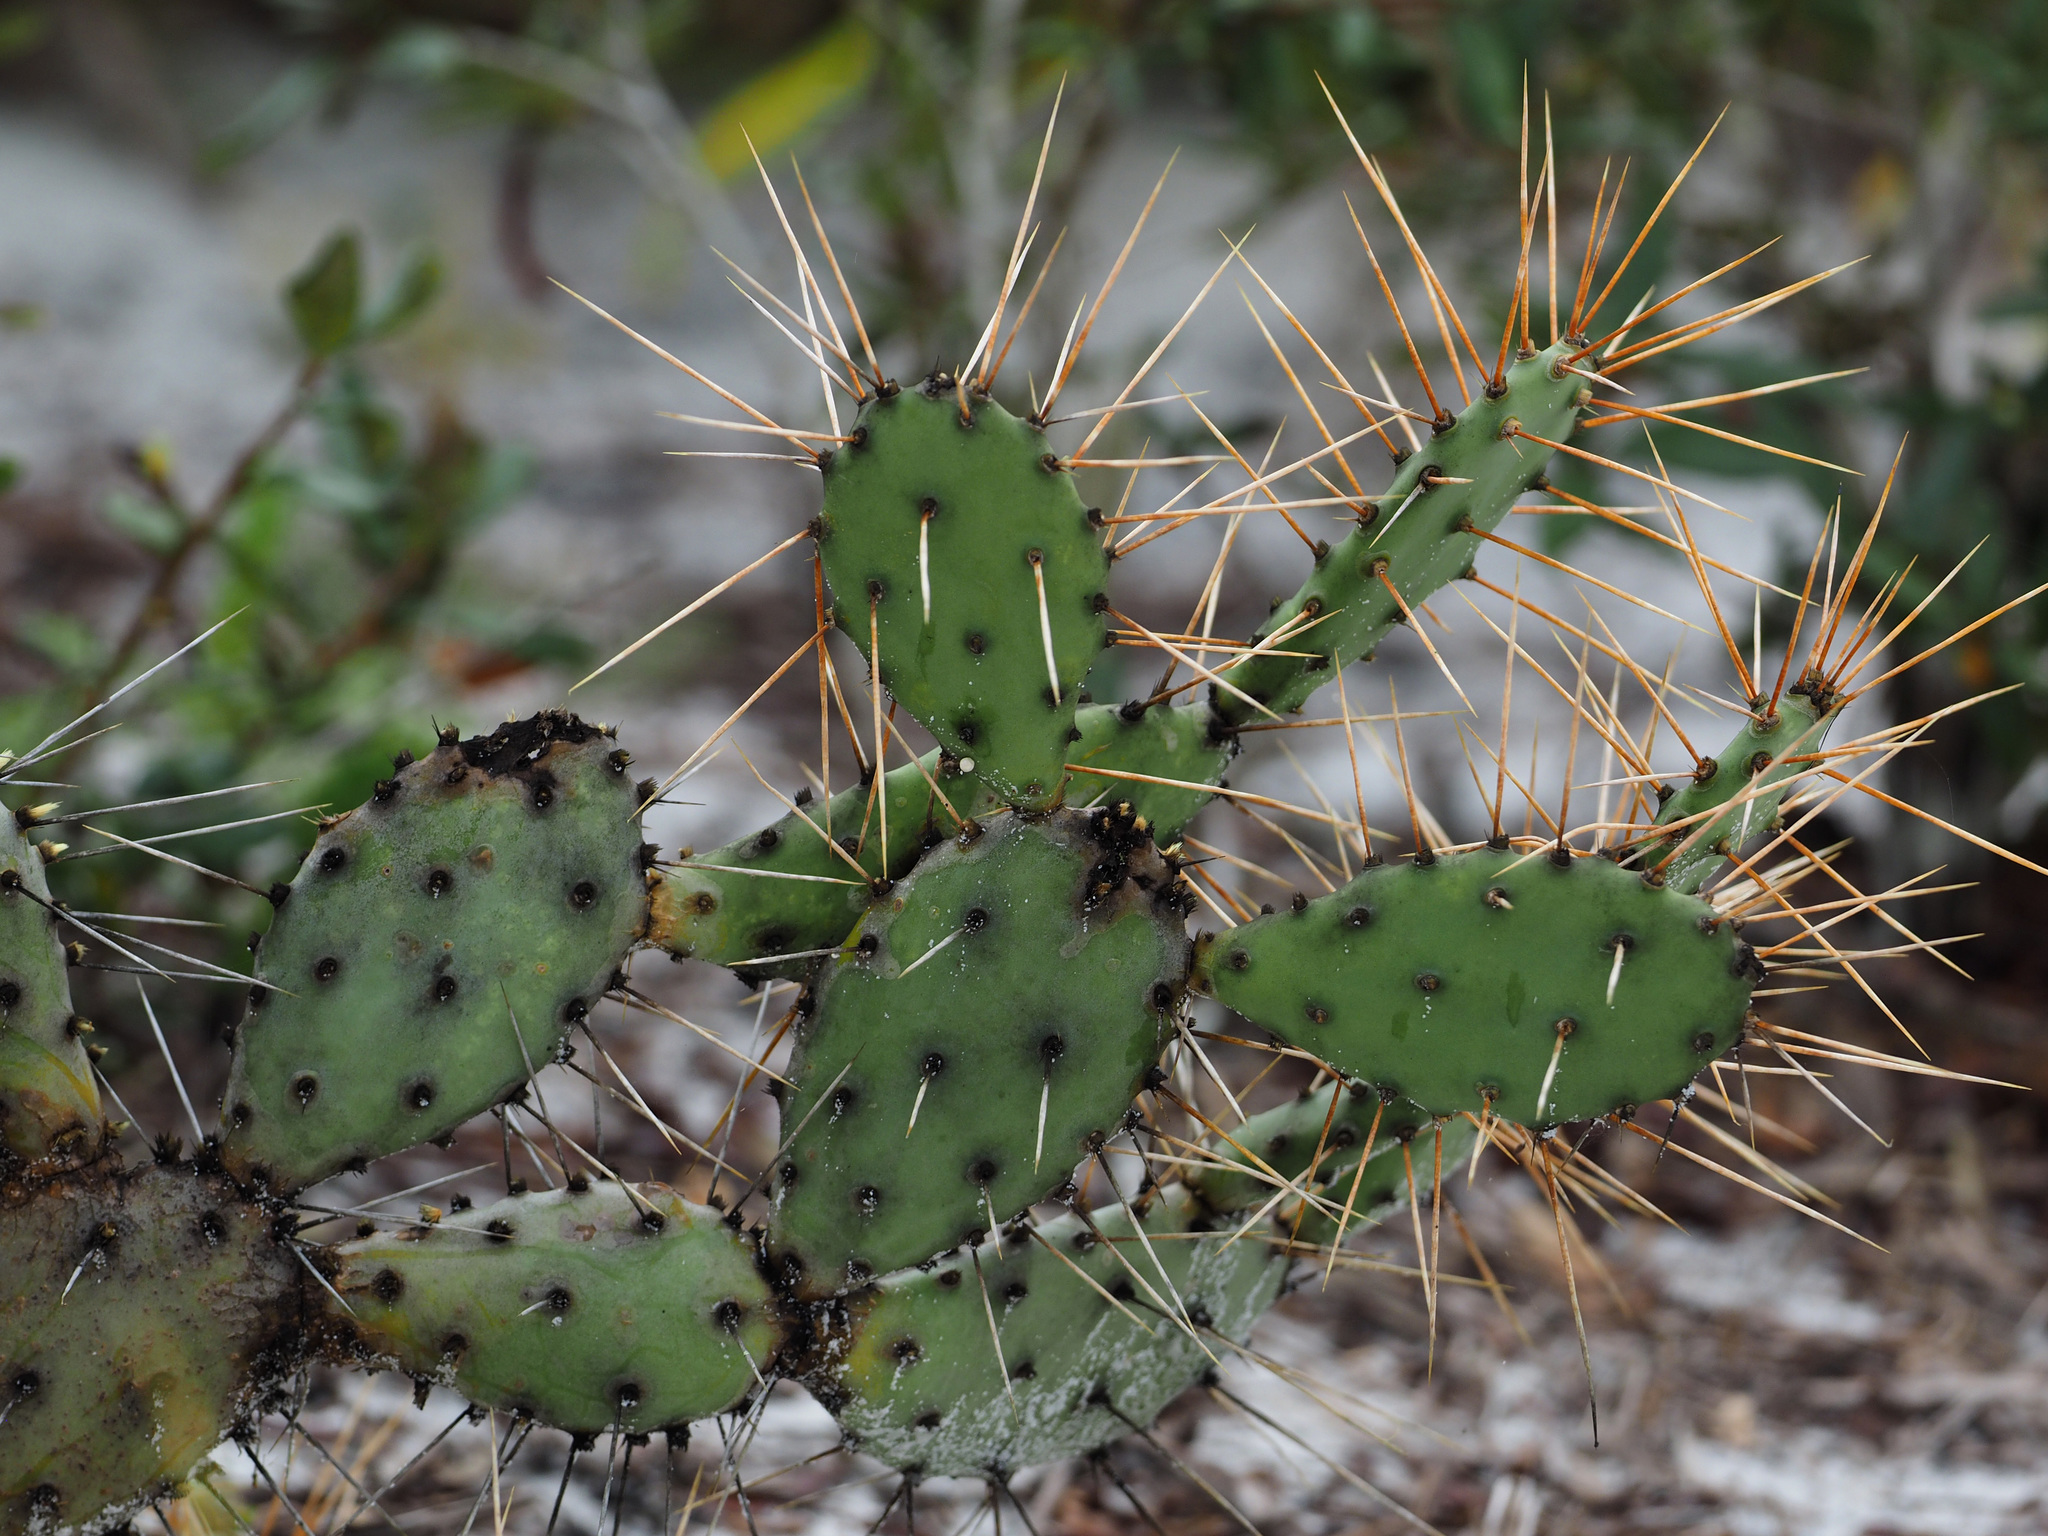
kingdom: Plantae
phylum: Tracheophyta
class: Magnoliopsida
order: Caryophyllales
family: Cactaceae
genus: Opuntia
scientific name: Opuntia austrina
